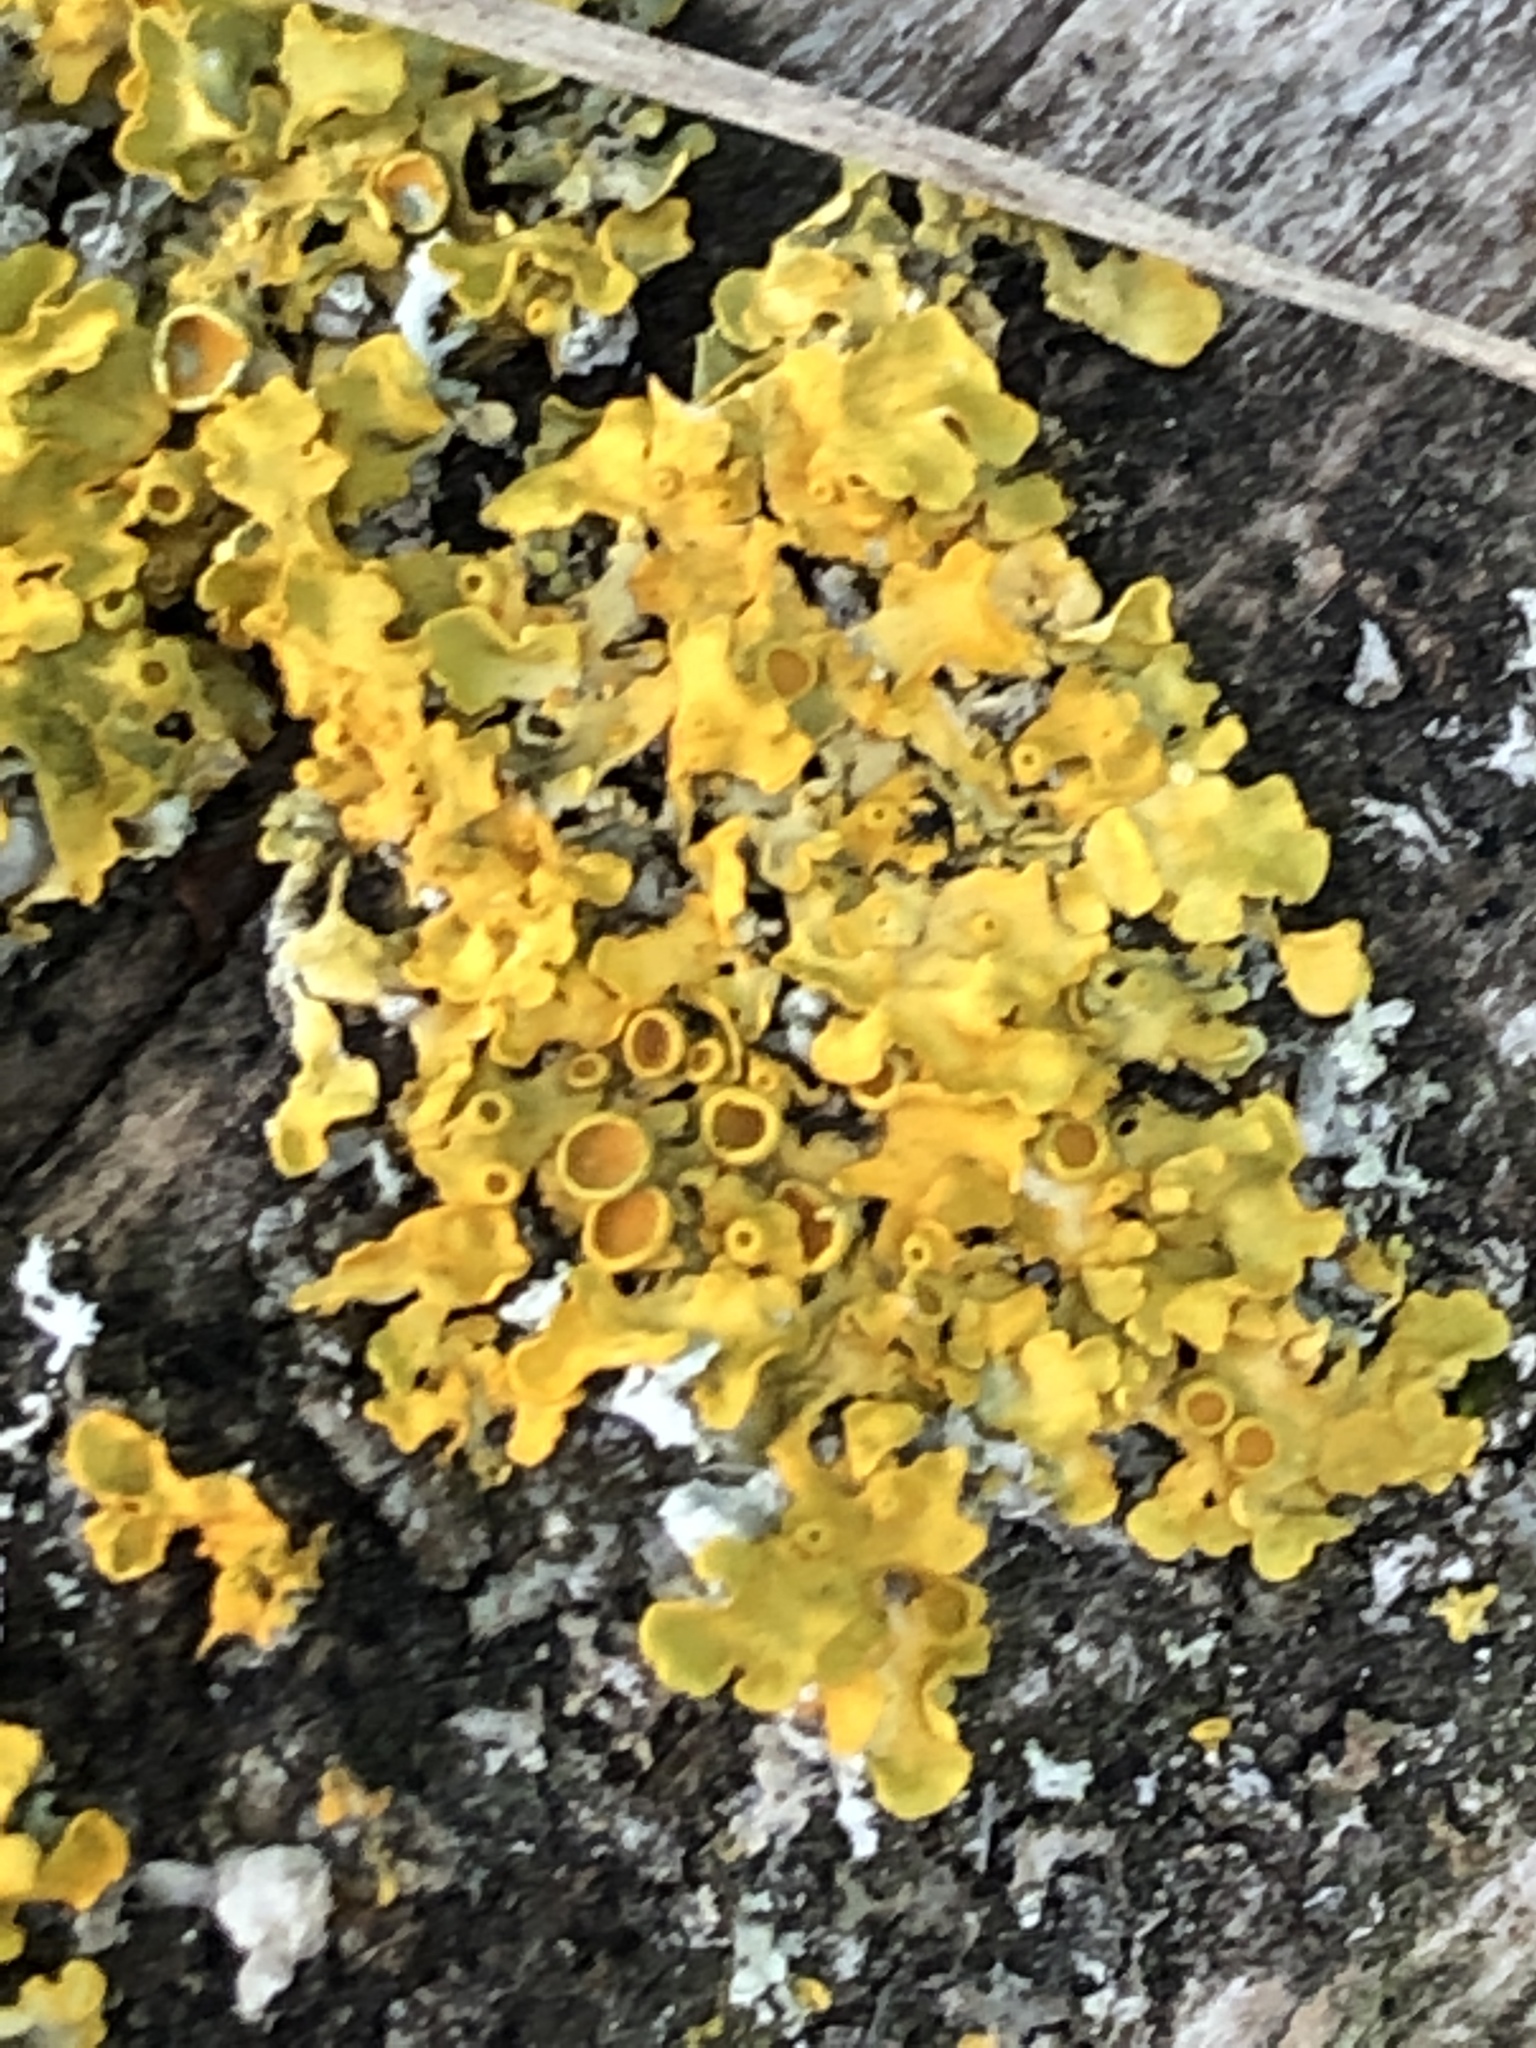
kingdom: Fungi
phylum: Ascomycota
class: Lecanoromycetes
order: Teloschistales
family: Teloschistaceae
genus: Xanthoria
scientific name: Xanthoria parietina
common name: Common orange lichen
